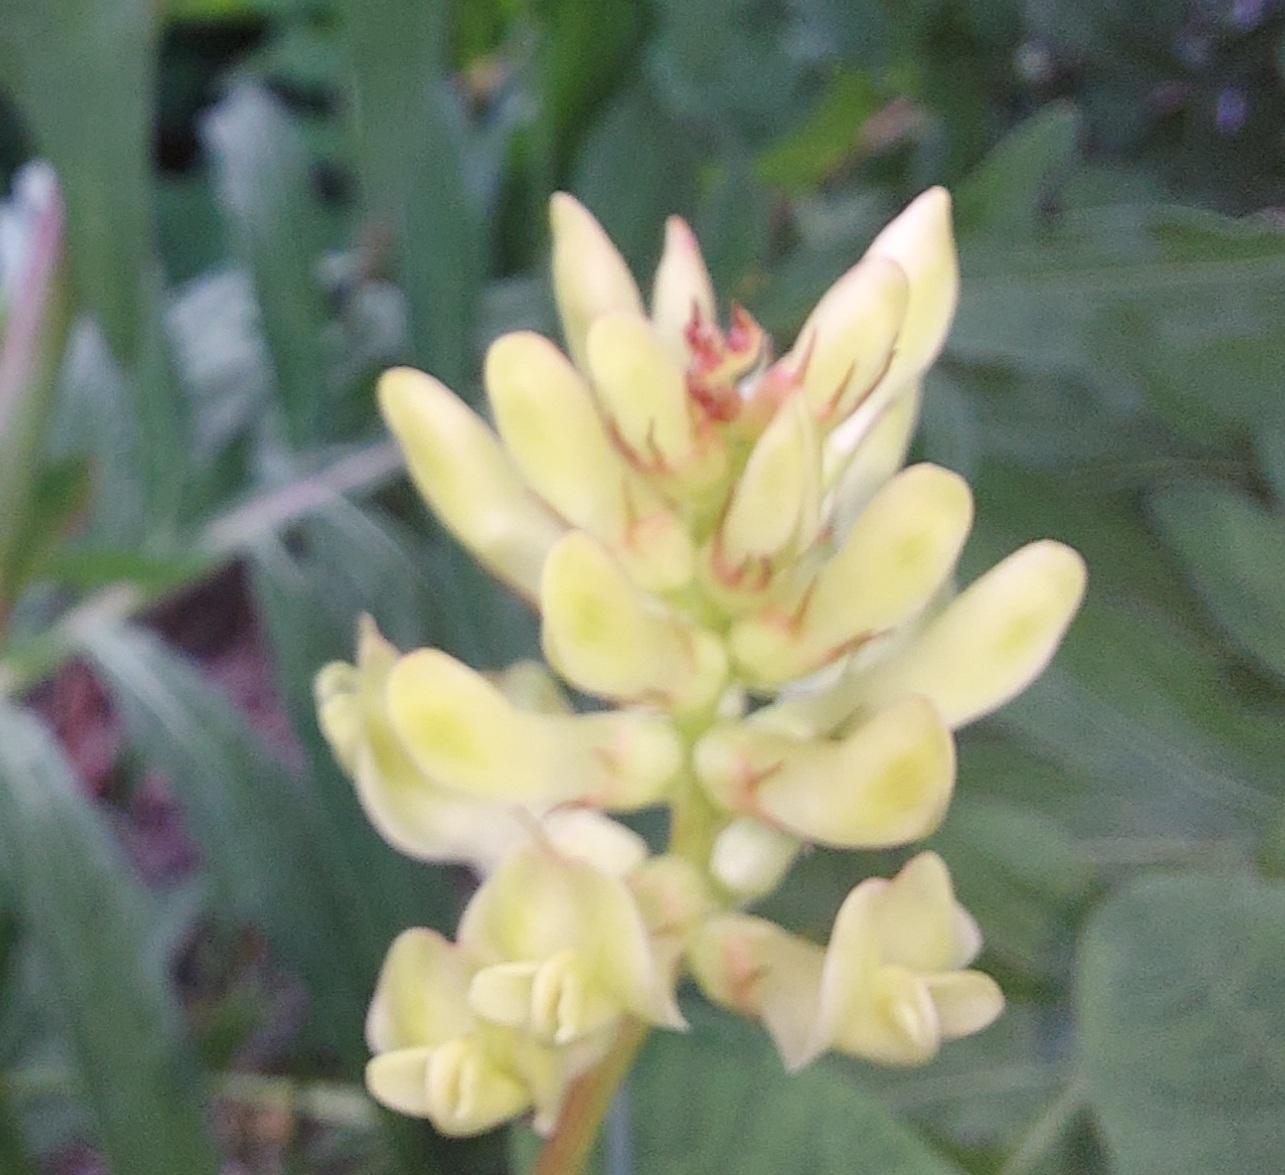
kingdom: Plantae
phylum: Tracheophyta
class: Magnoliopsida
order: Fabales
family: Fabaceae
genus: Astragalus
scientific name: Astragalus glycyphyllos
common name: Wild liquorice
